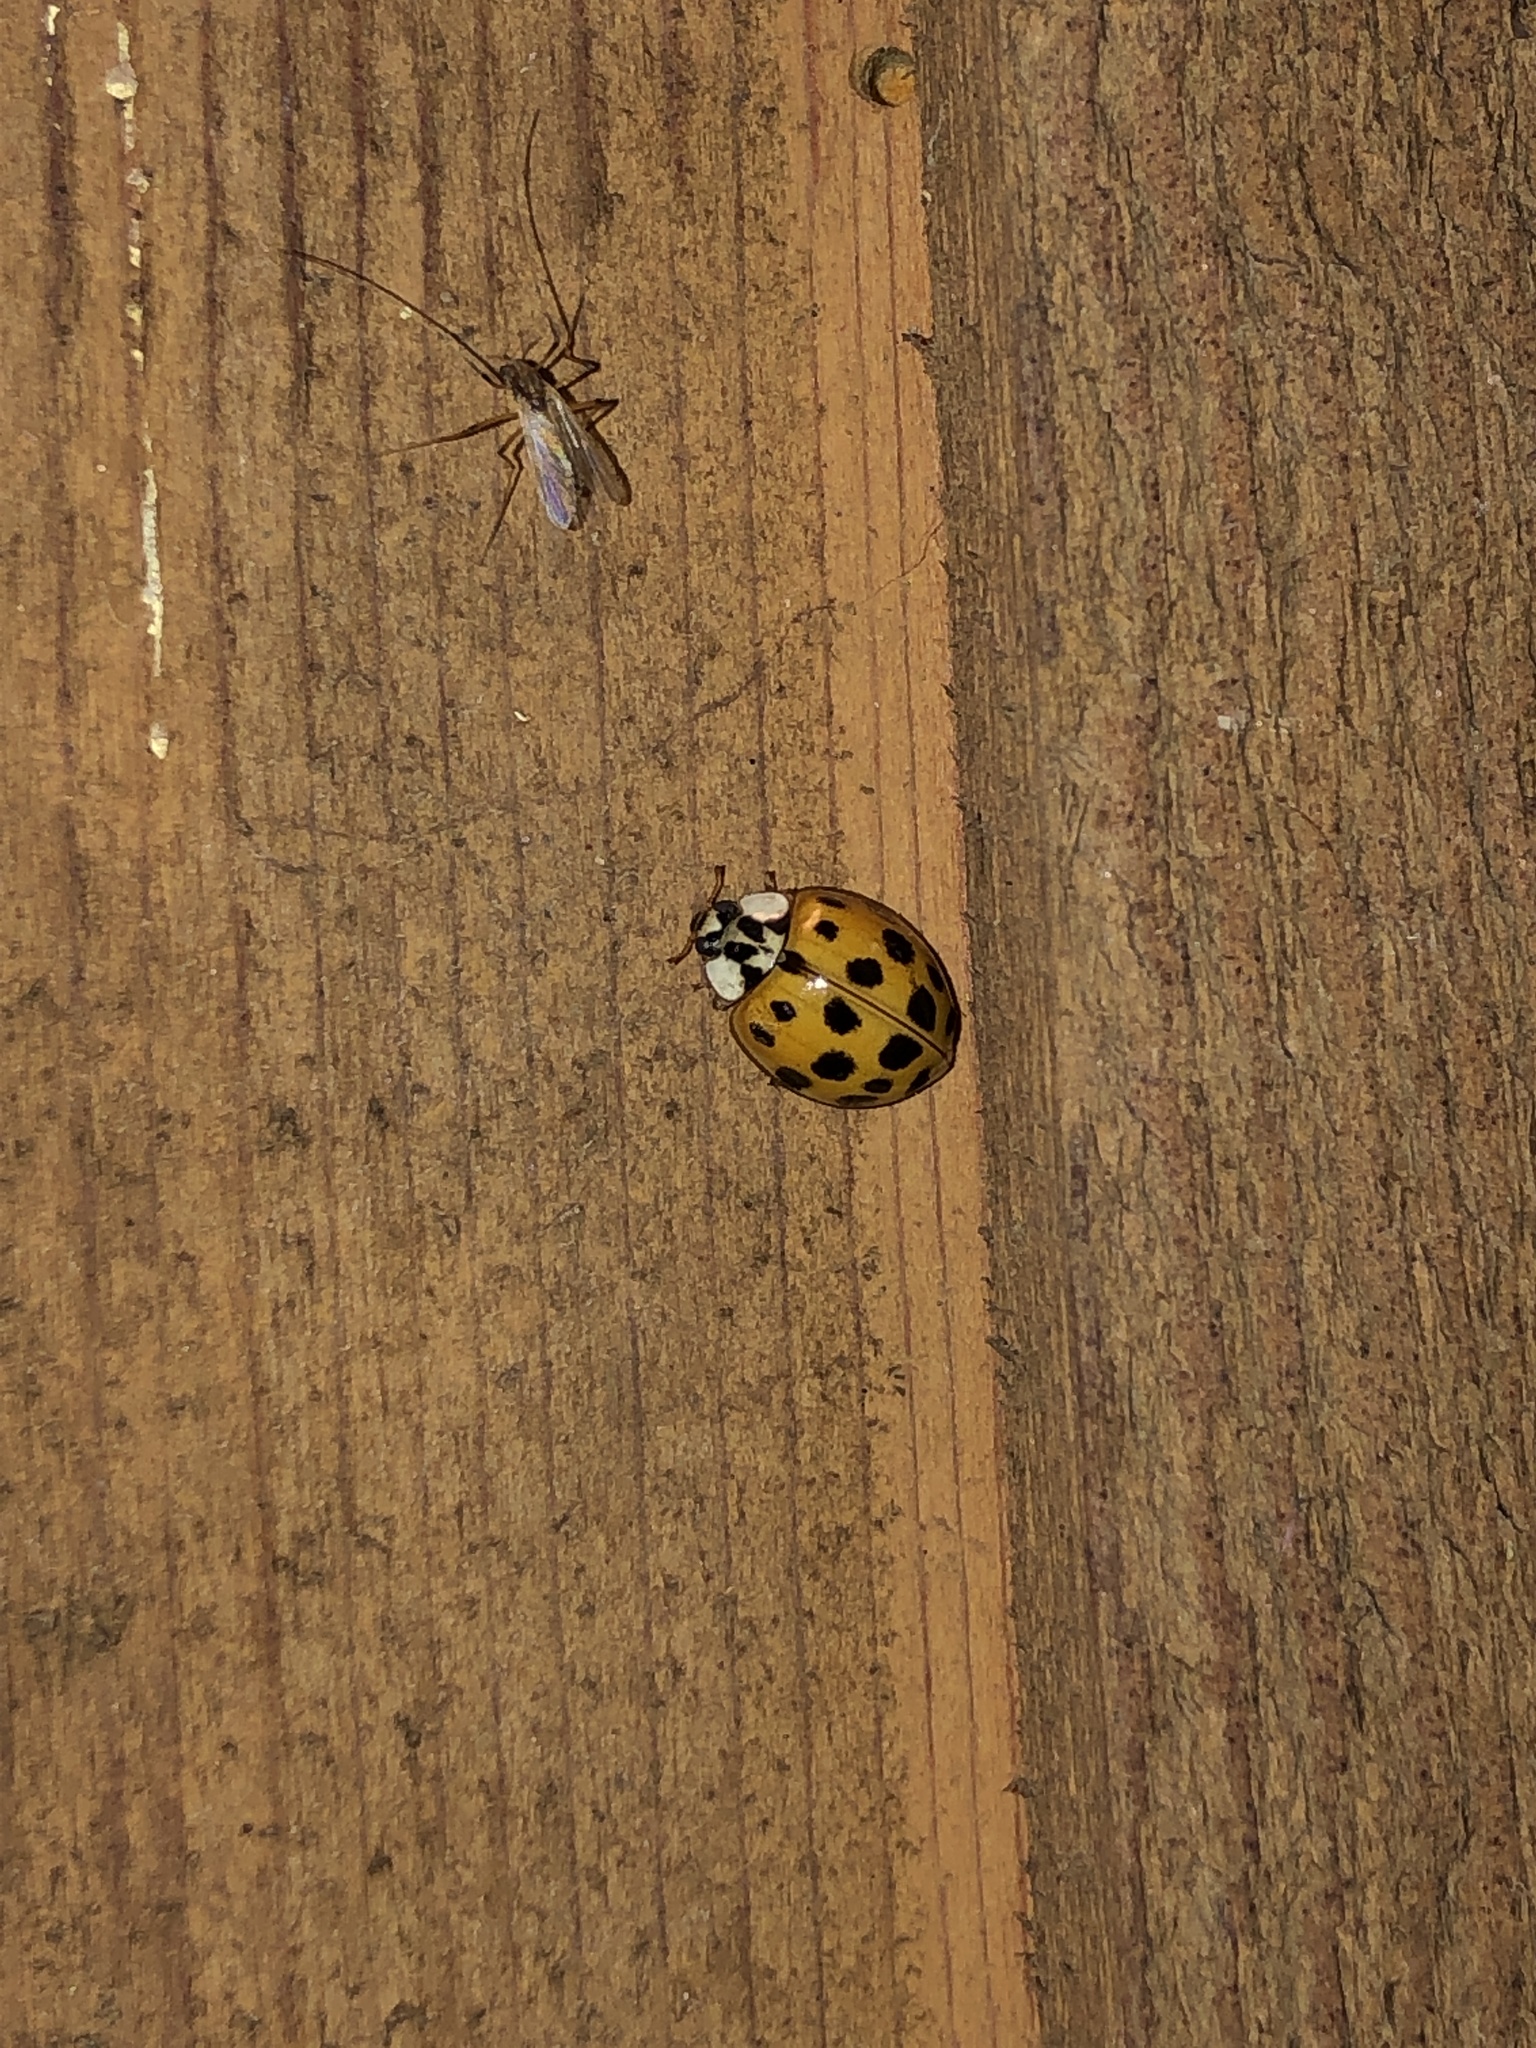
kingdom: Animalia
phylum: Arthropoda
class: Insecta
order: Coleoptera
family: Coccinellidae
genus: Harmonia
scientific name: Harmonia axyridis
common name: Harlequin ladybird
